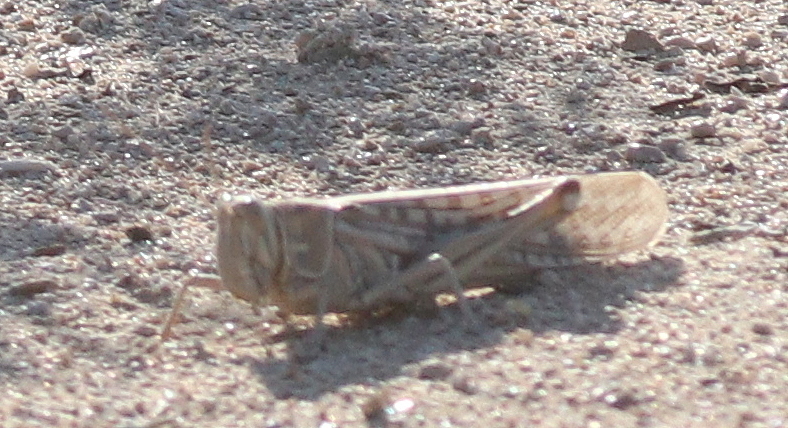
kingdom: Animalia
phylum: Arthropoda
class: Insecta
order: Orthoptera
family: Acrididae
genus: Schistocerca
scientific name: Schistocerca gregaria
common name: Desert locust
